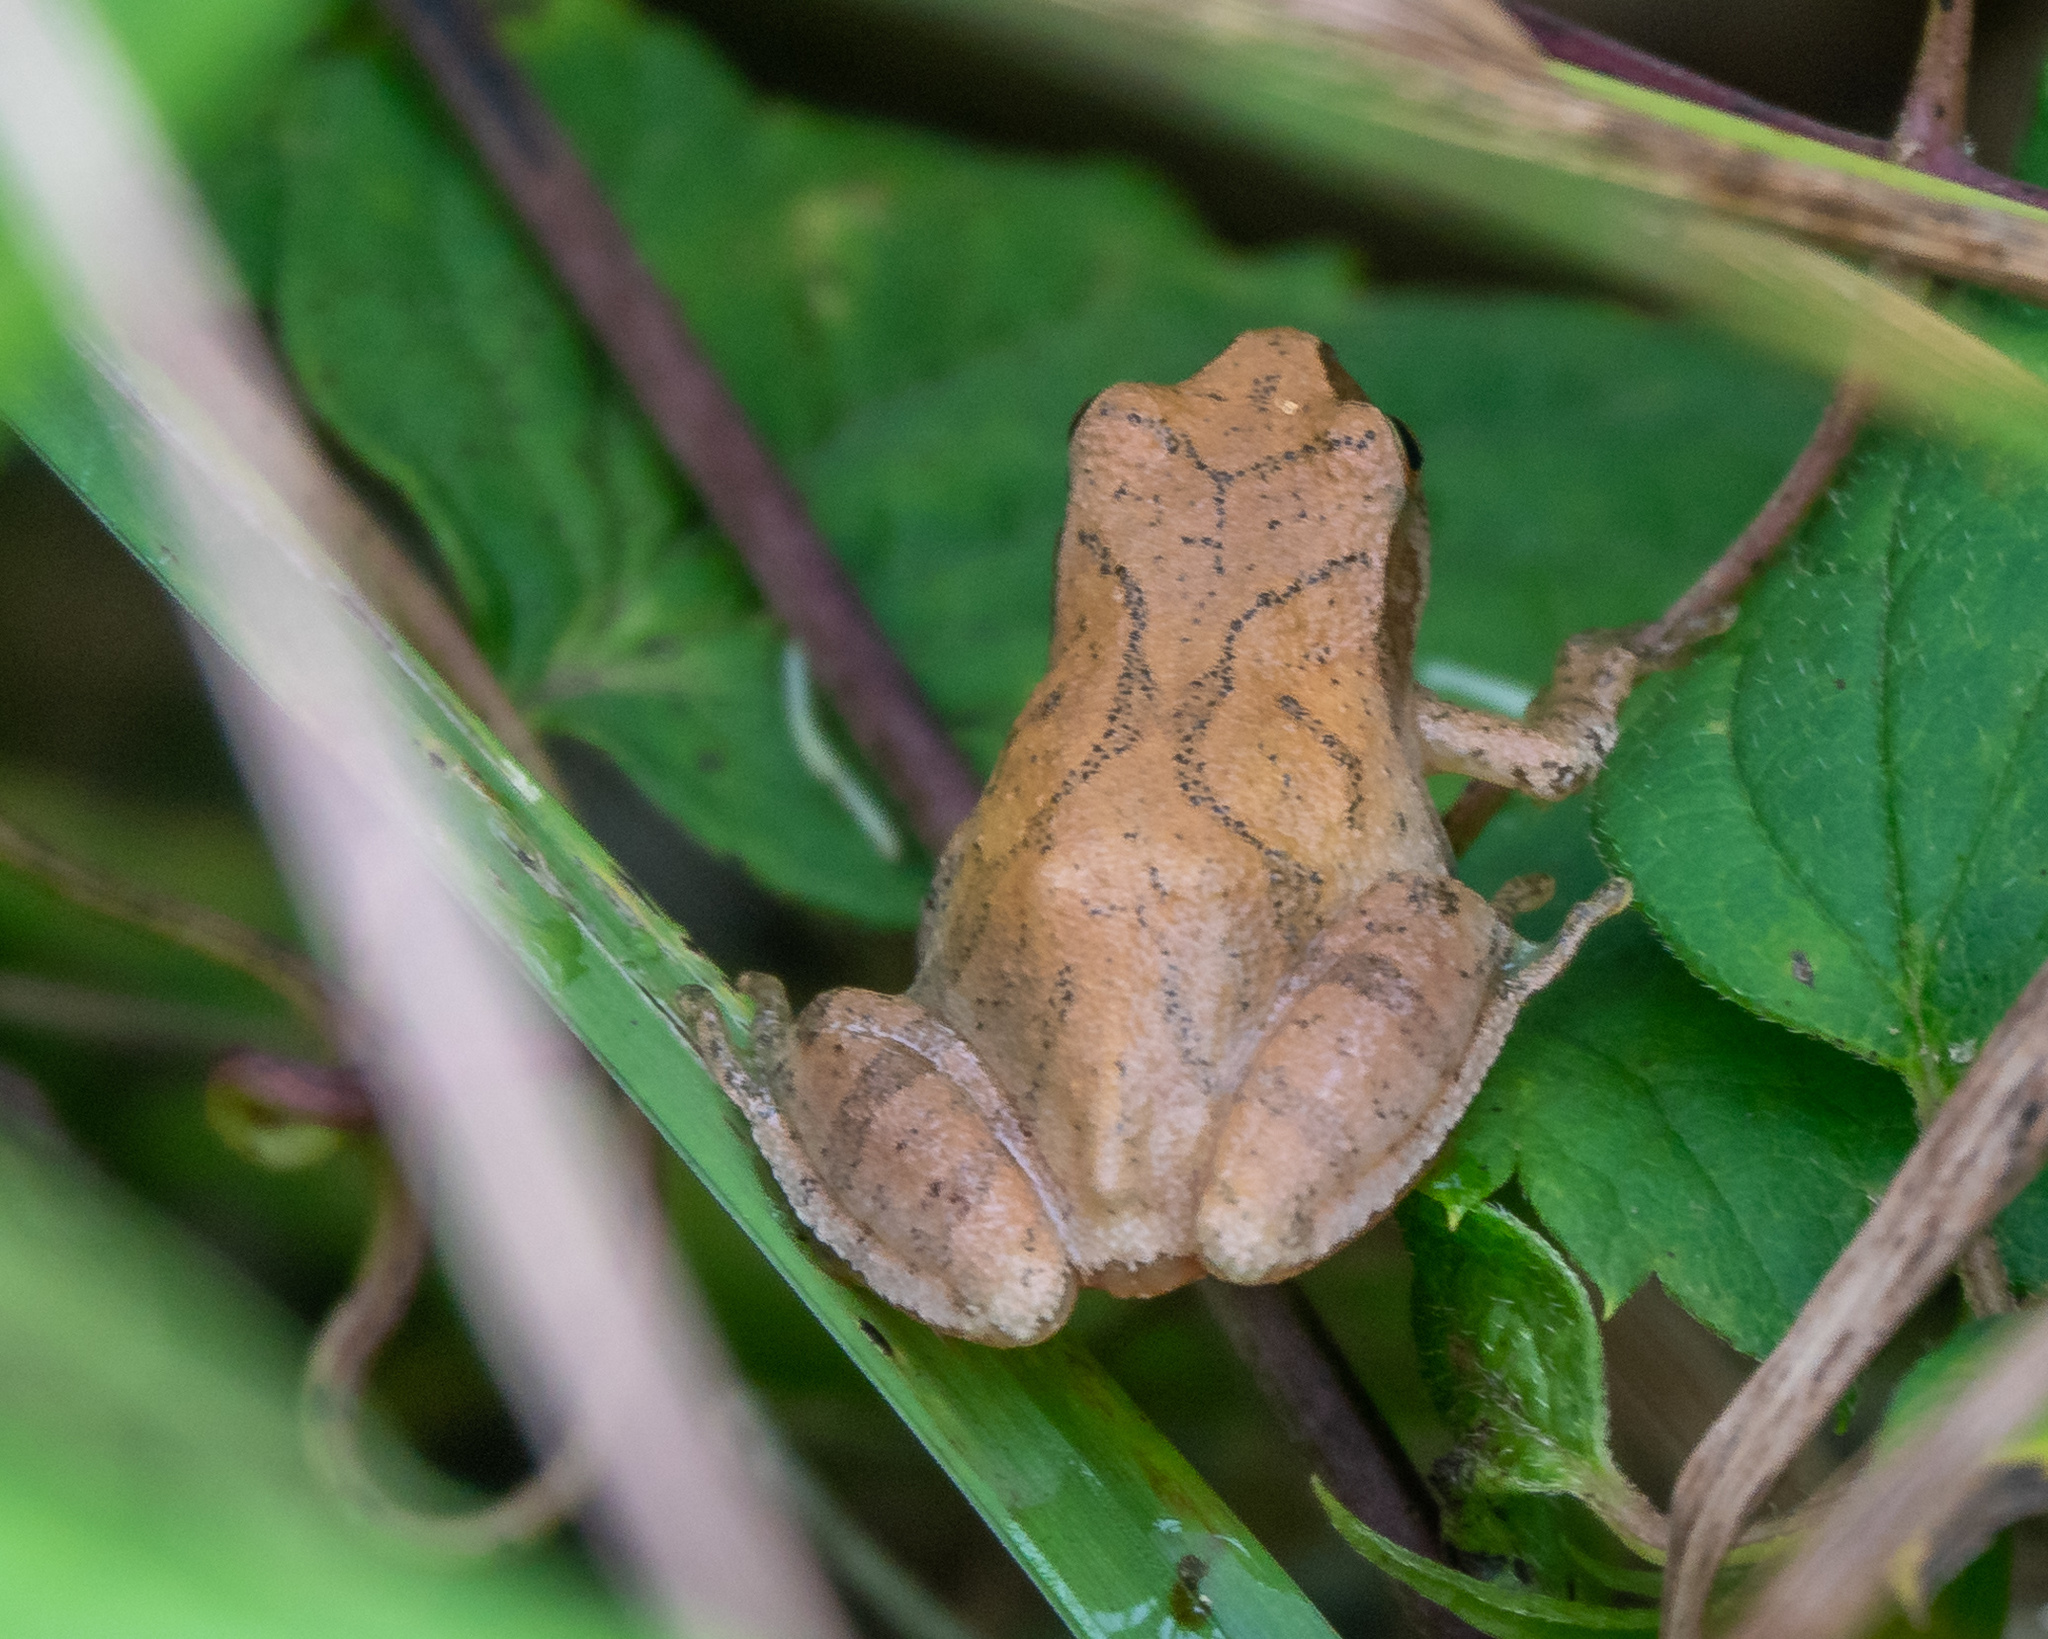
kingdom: Animalia
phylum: Chordata
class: Amphibia
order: Anura
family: Hylidae
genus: Pseudacris
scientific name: Pseudacris crucifer
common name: Spring peeper
